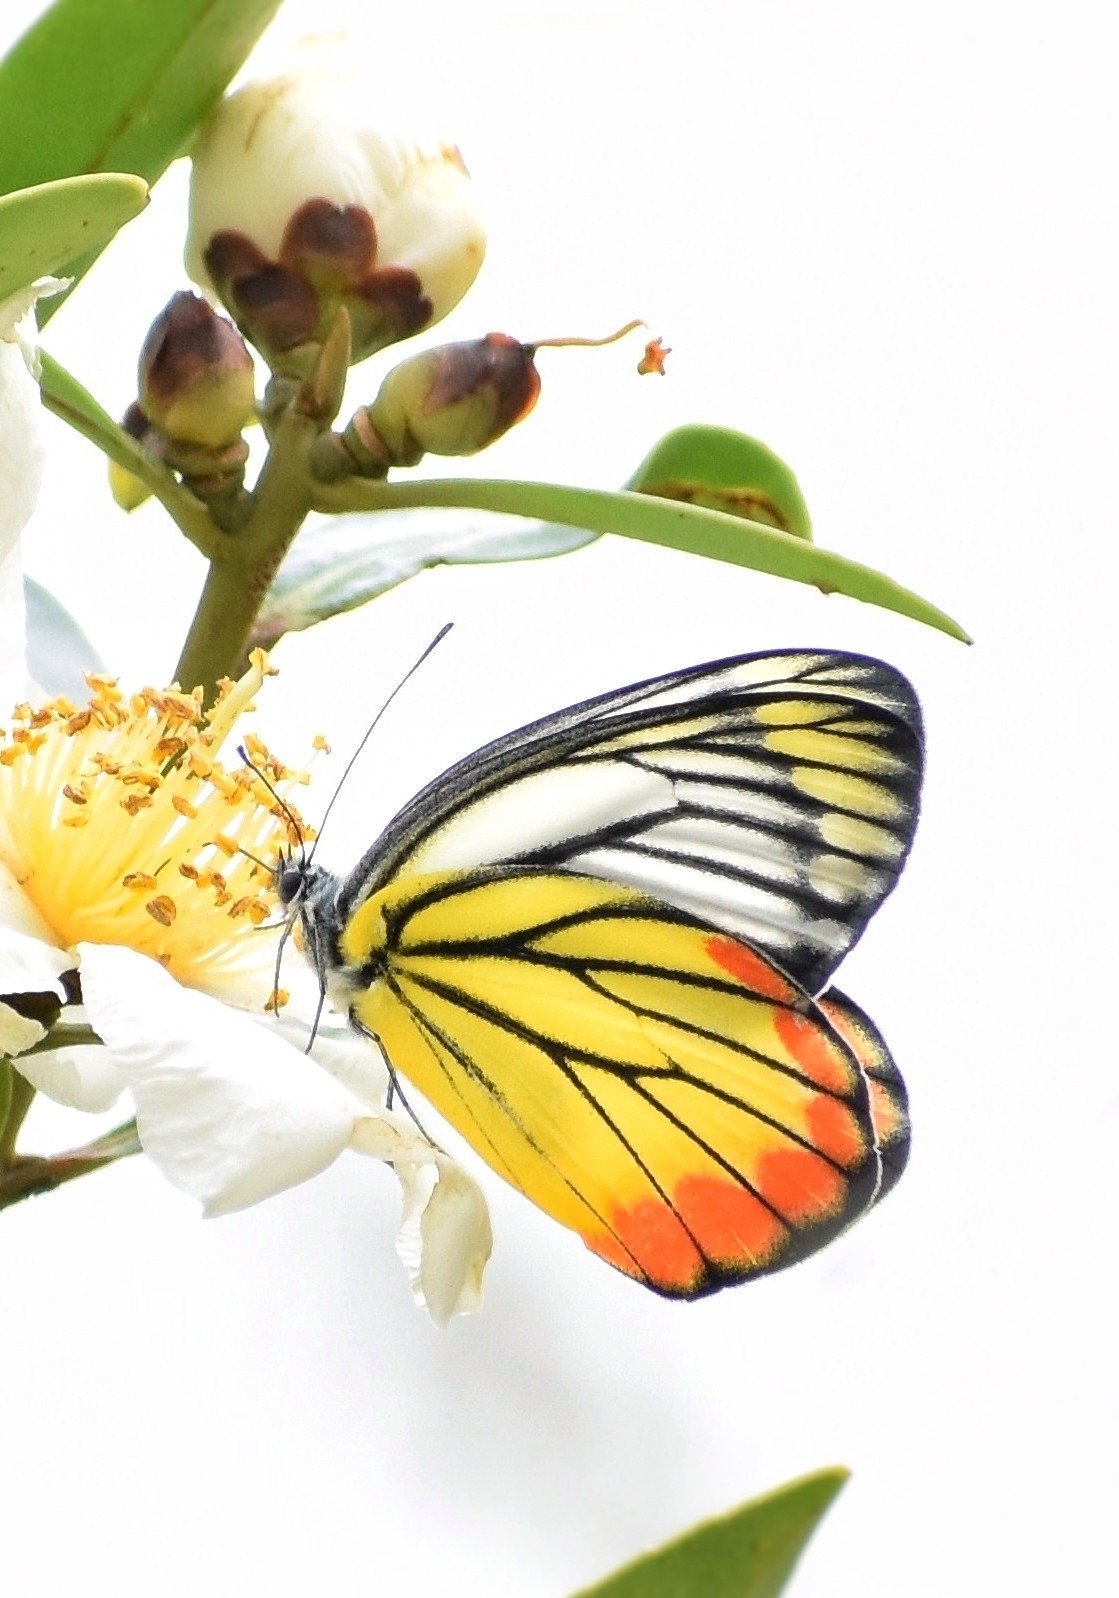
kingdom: Animalia
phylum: Arthropoda
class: Insecta
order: Lepidoptera
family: Pieridae
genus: Delias
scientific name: Delias hyparete
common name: Painted jezebel
